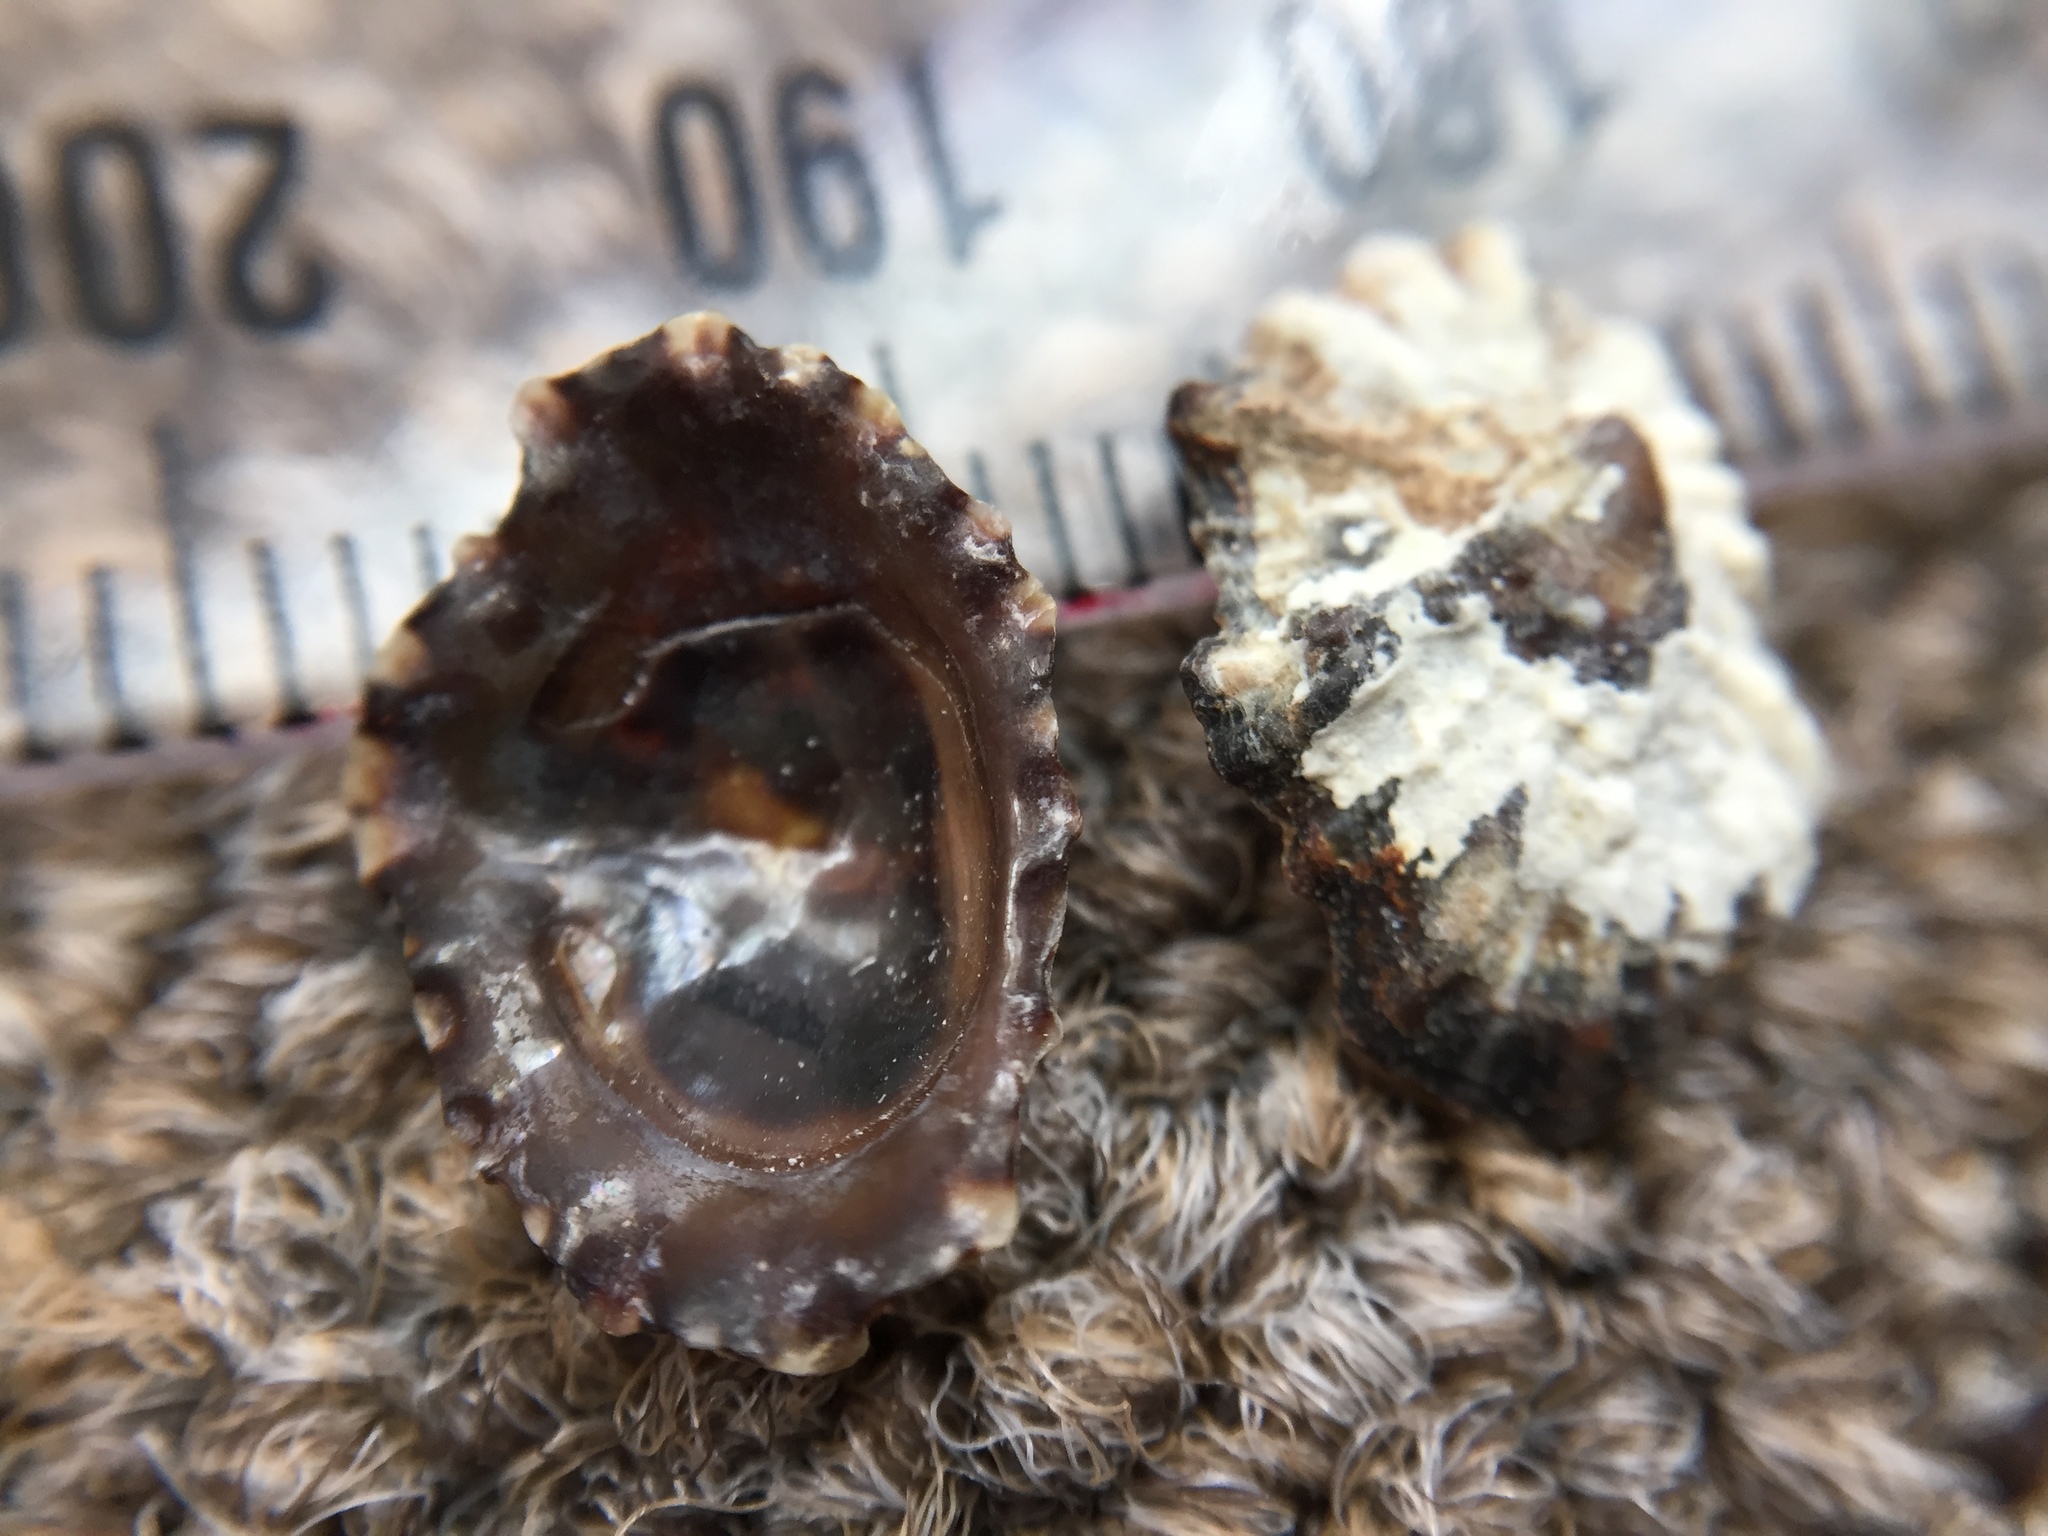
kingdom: Animalia
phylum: Mollusca
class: Gastropoda
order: Siphonariida
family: Siphonariidae
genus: Siphonaria
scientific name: Siphonaria australis
